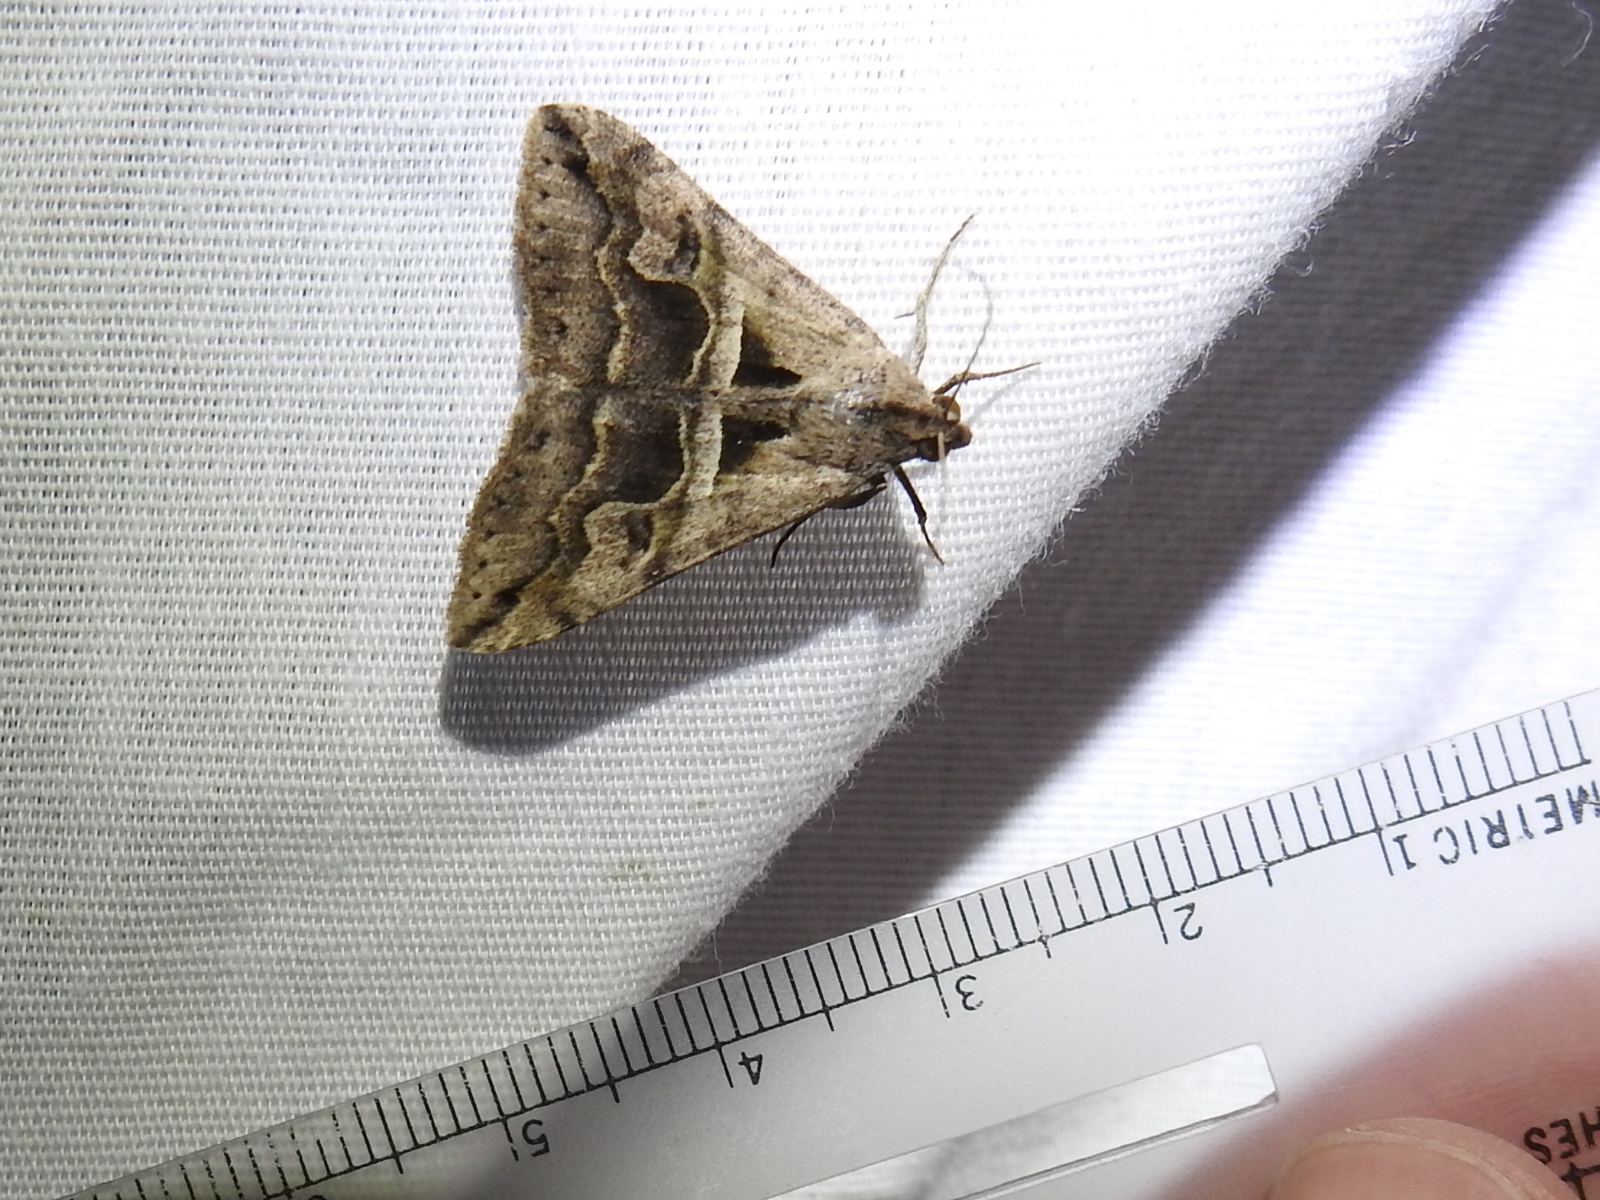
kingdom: Animalia
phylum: Arthropoda
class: Insecta
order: Lepidoptera
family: Erebidae
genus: Melipotis
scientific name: Melipotis cellaris
